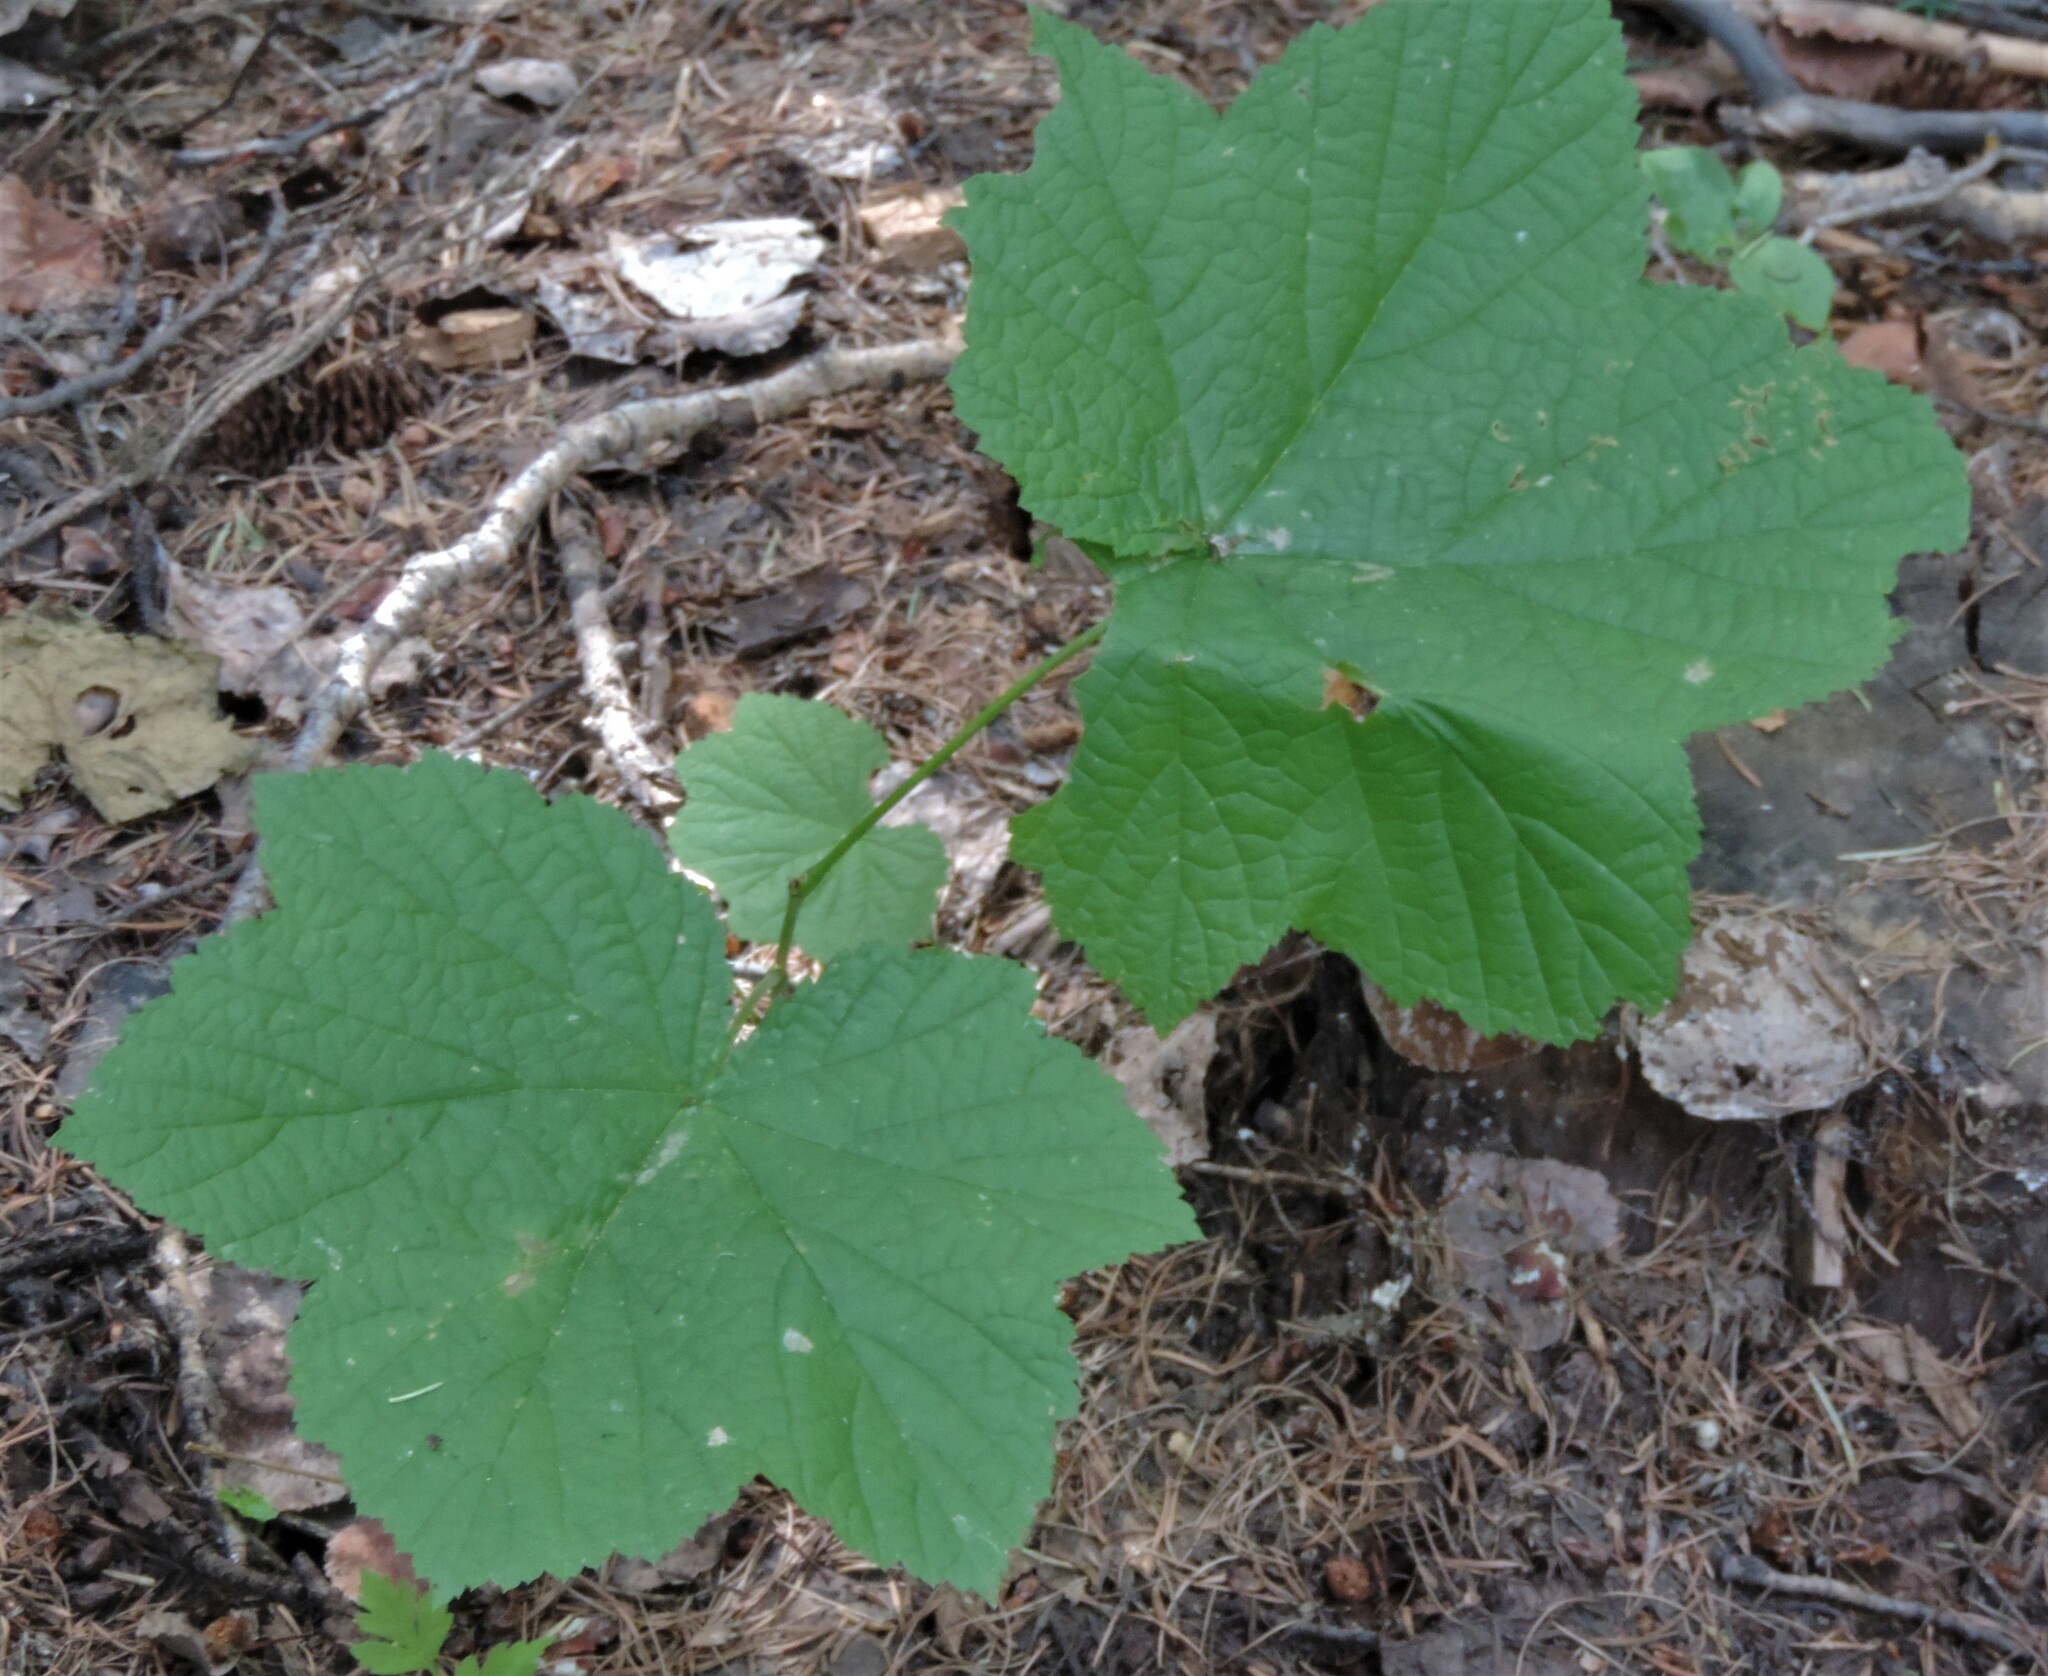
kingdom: Plantae
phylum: Tracheophyta
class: Magnoliopsida
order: Rosales
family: Rosaceae
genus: Rubus
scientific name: Rubus parviflorus
